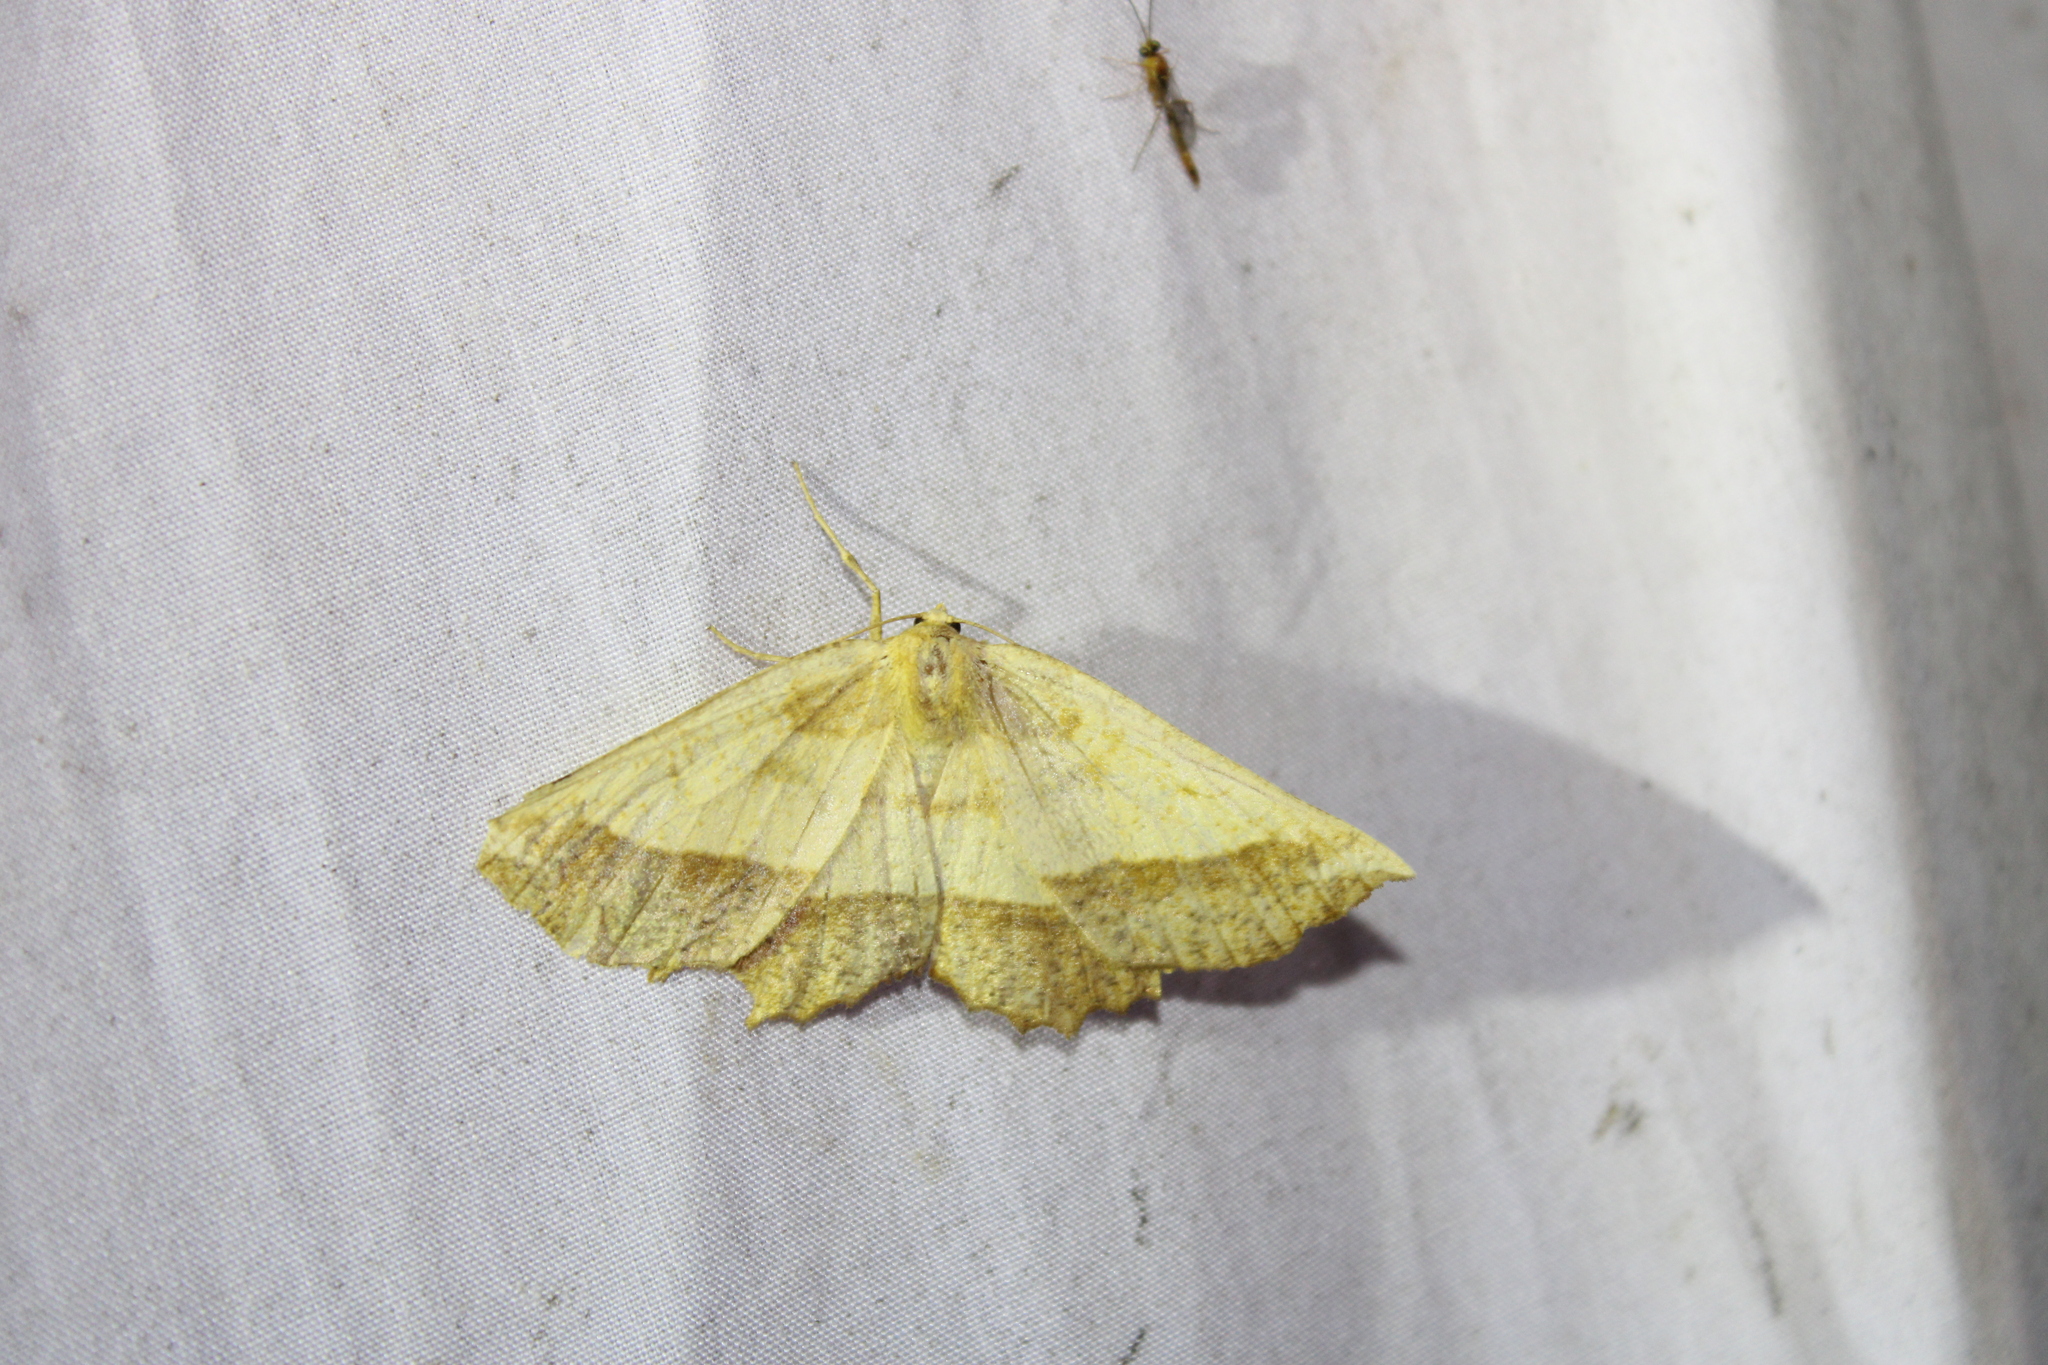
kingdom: Animalia
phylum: Arthropoda
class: Insecta
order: Lepidoptera
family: Geometridae
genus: Euchlaena
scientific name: Euchlaena serrata
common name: Saw wing
